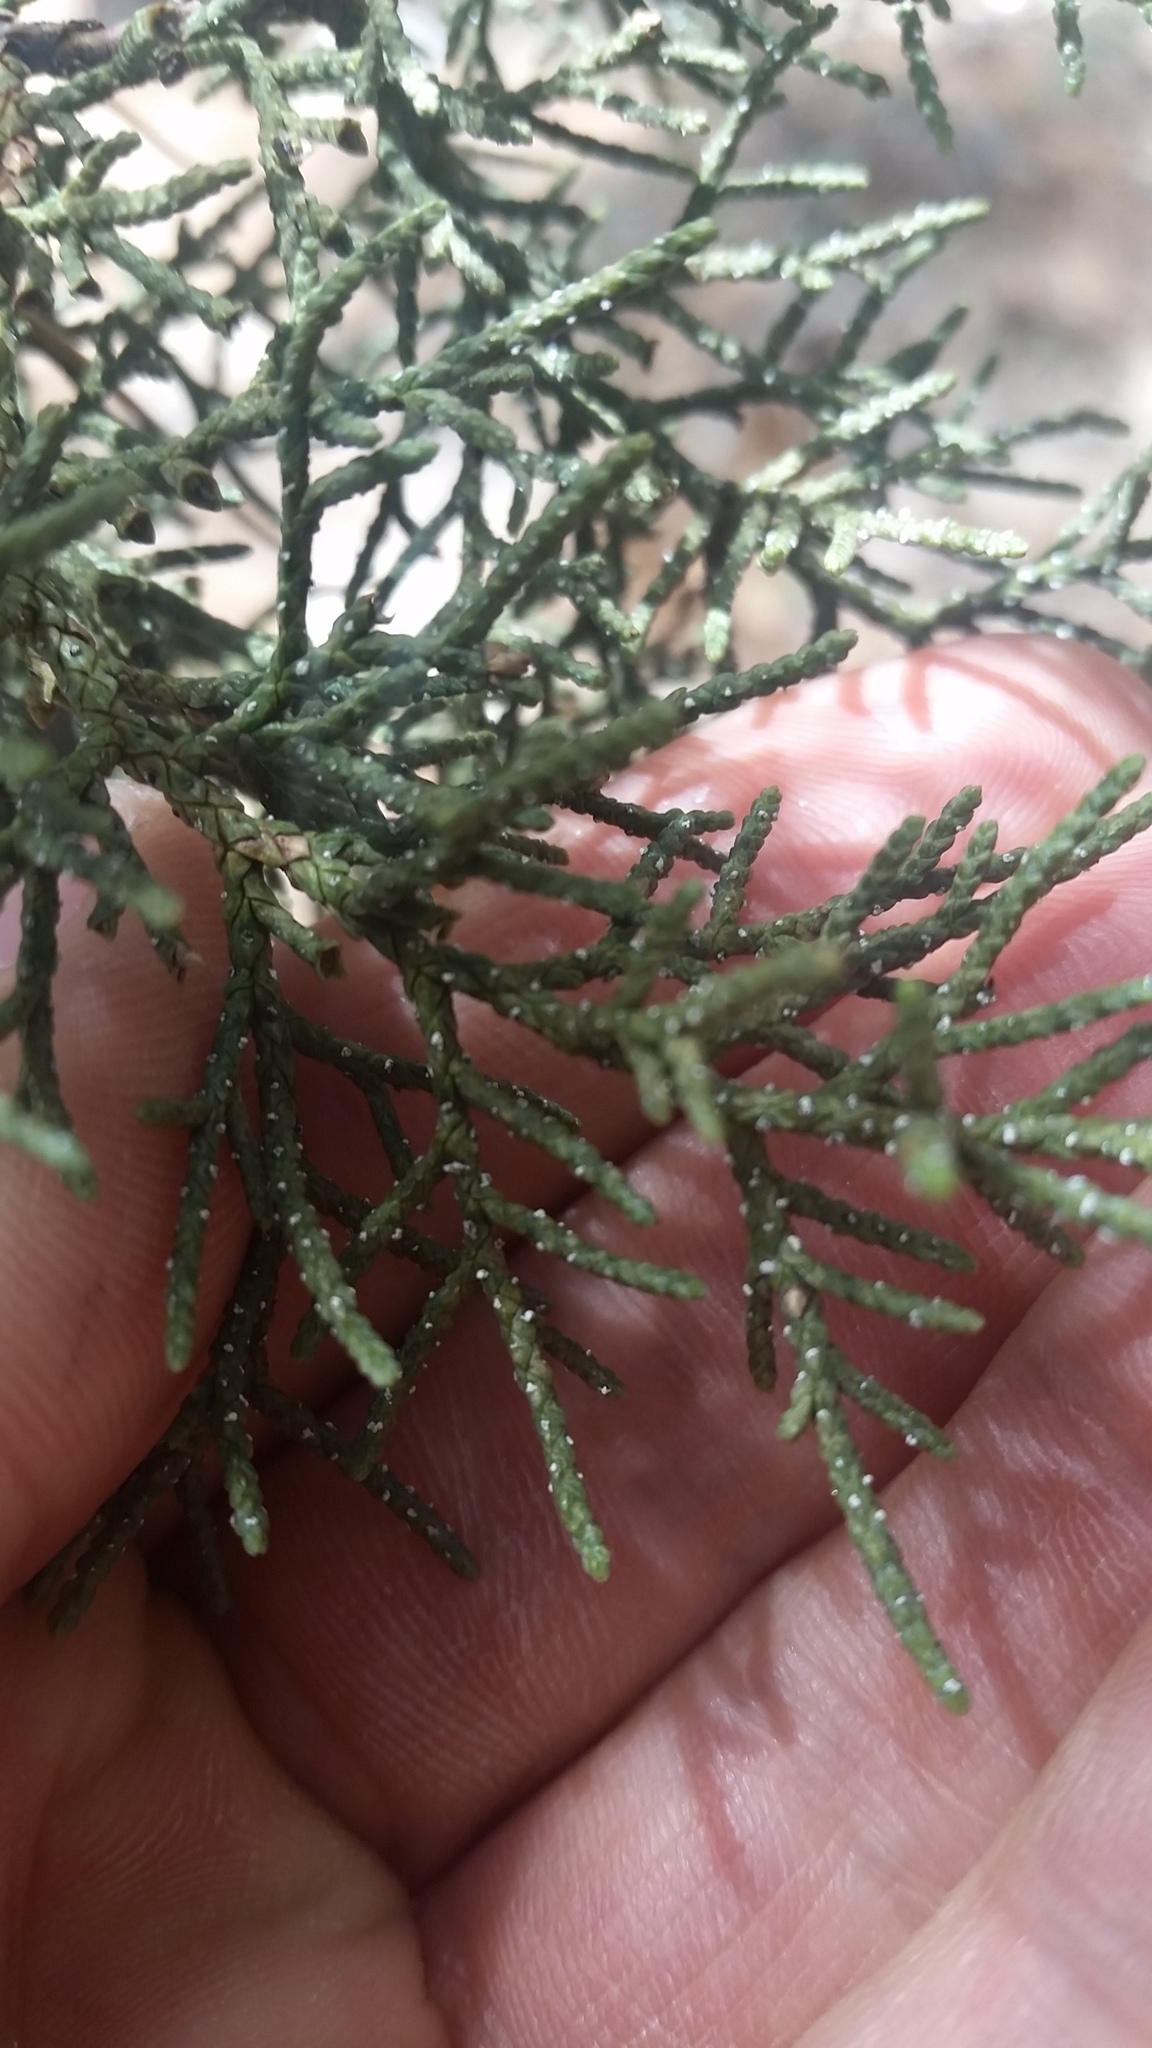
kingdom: Plantae
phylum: Tracheophyta
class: Pinopsida
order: Pinales
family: Cupressaceae
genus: Juniperus
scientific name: Juniperus deppeana
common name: Alligator juniper
